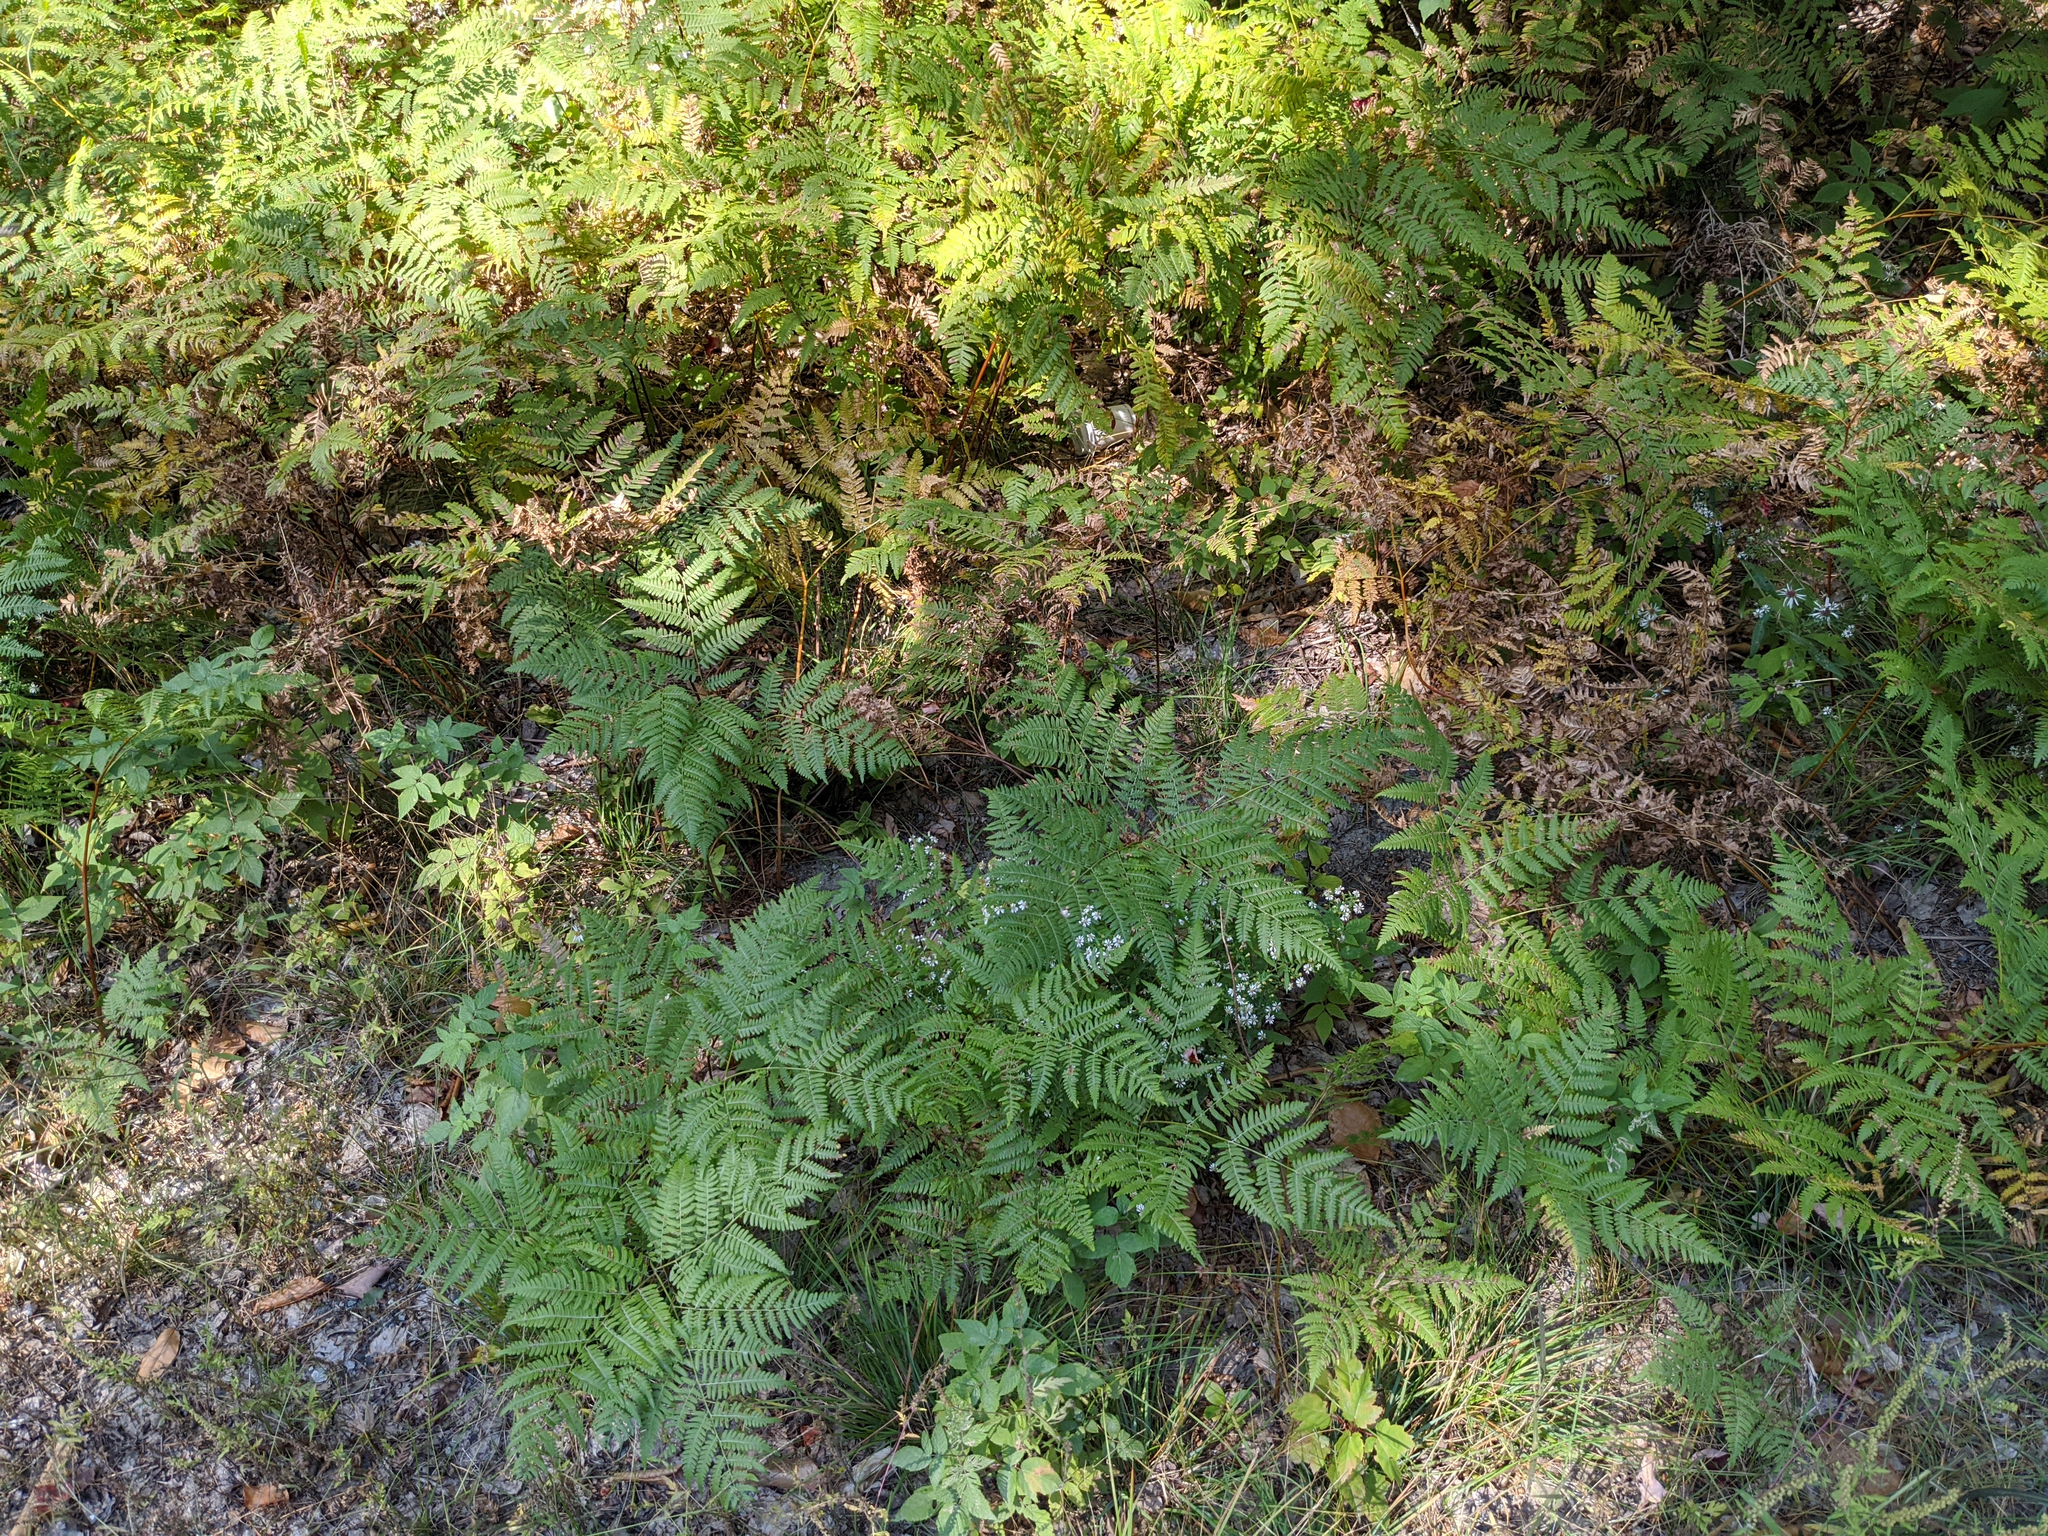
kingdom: Plantae
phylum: Tracheophyta
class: Polypodiopsida
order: Polypodiales
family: Dennstaedtiaceae
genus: Pteridium
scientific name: Pteridium aquilinum
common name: Bracken
